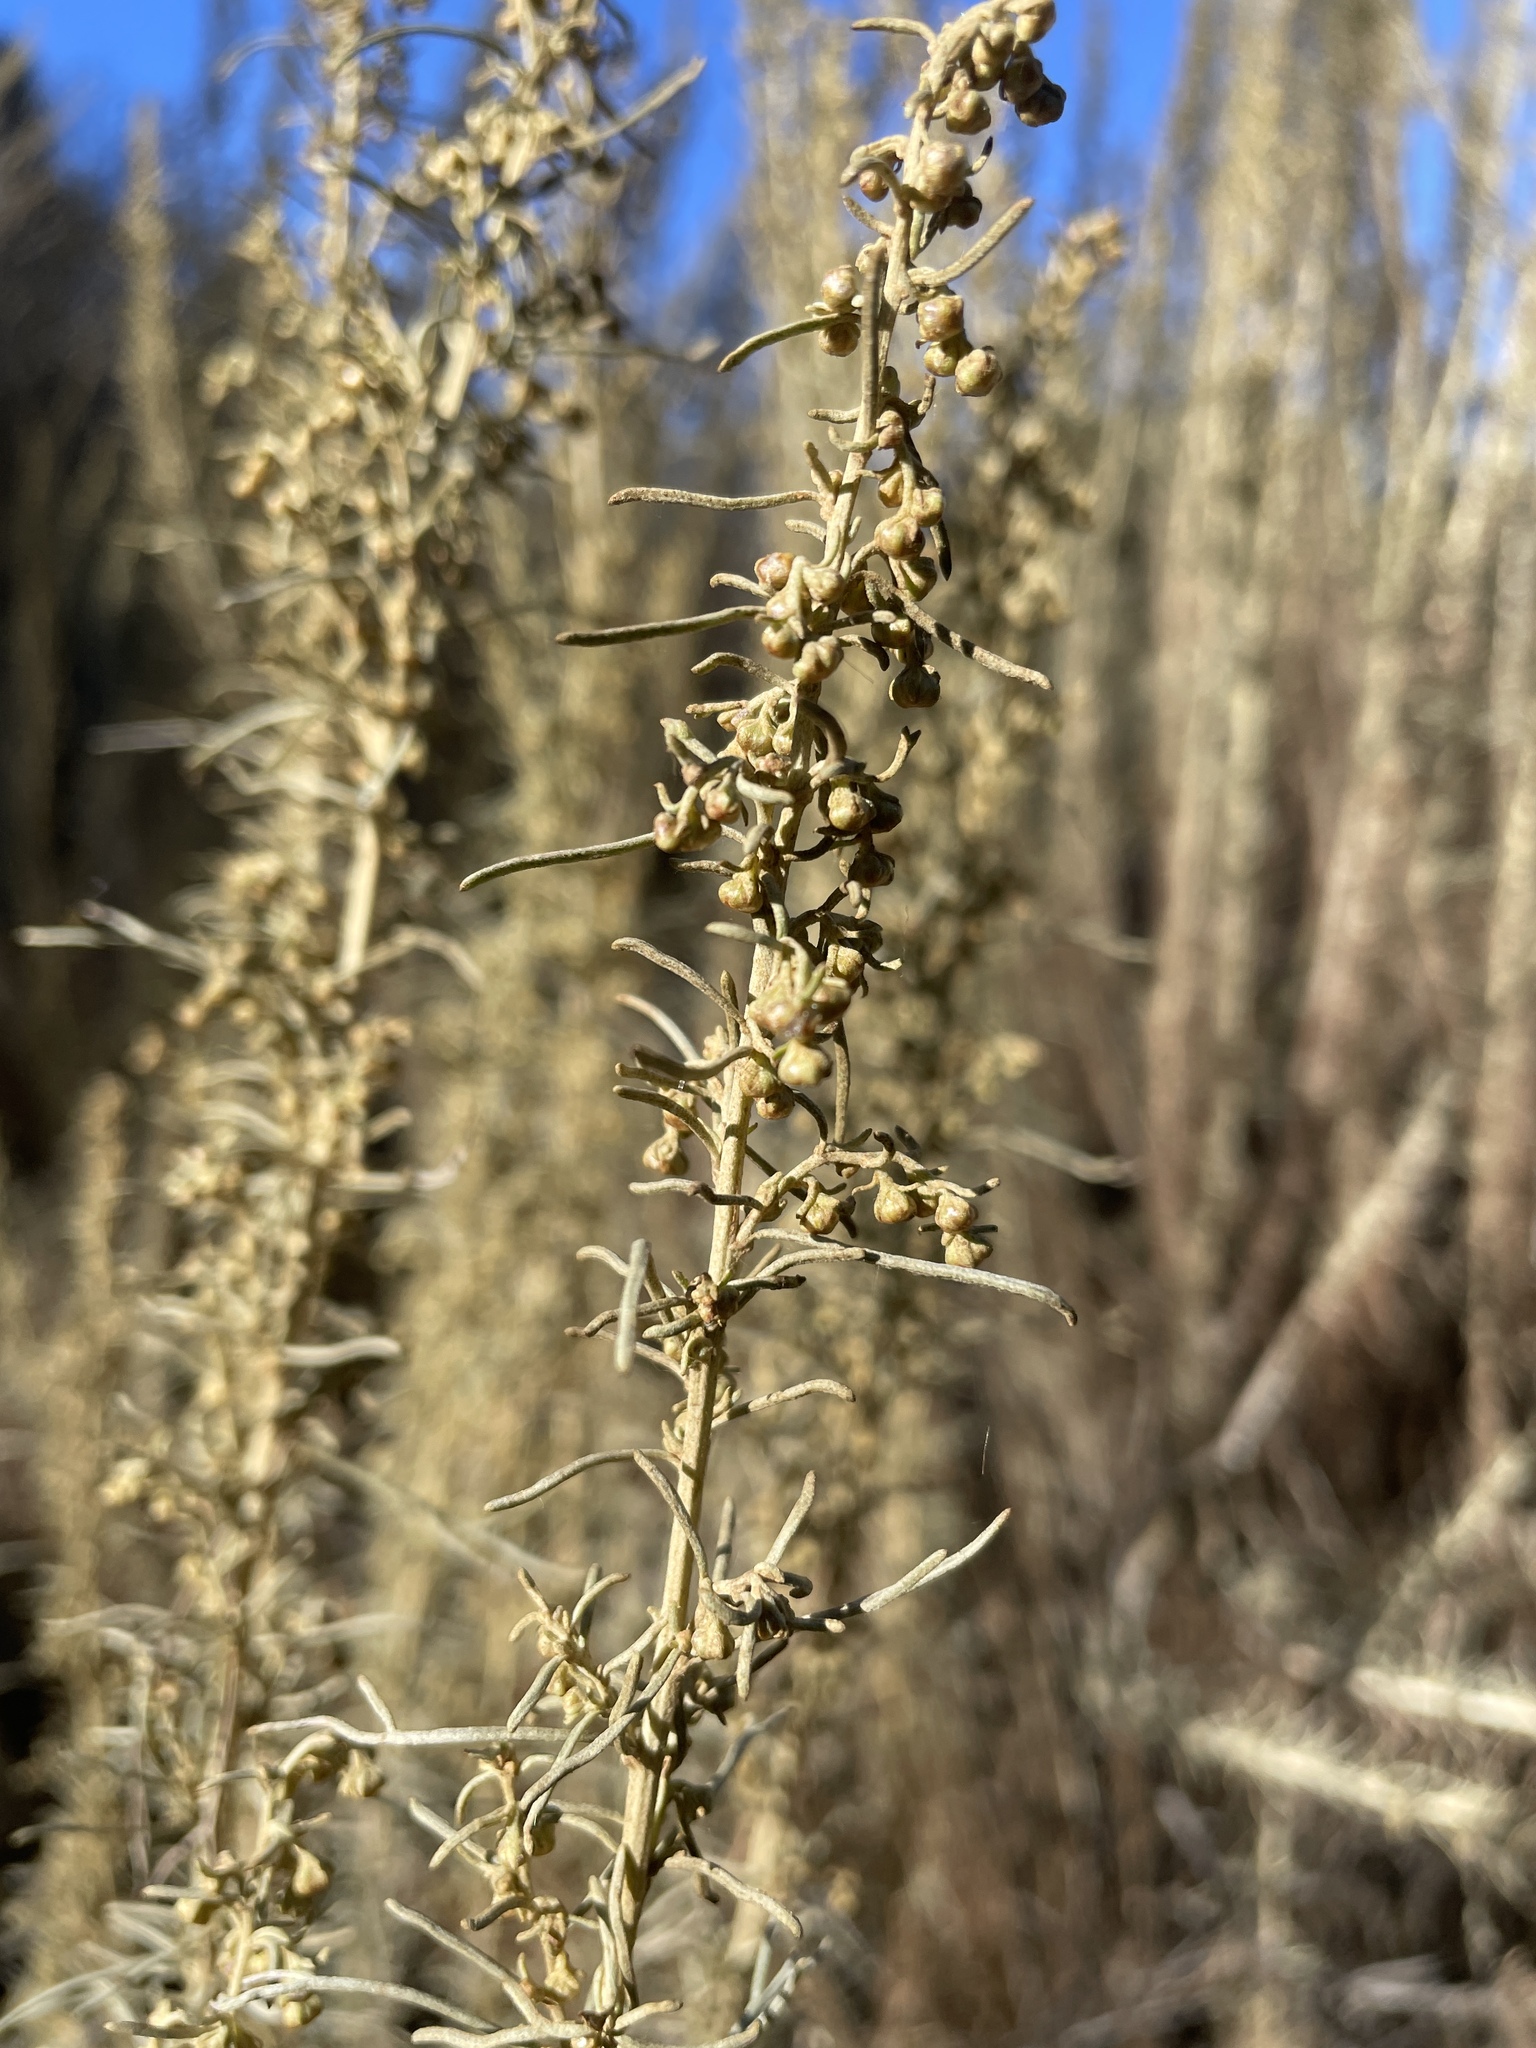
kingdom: Plantae
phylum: Tracheophyta
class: Magnoliopsida
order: Asterales
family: Asteraceae
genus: Artemisia
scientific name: Artemisia californica
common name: California sagebrush
